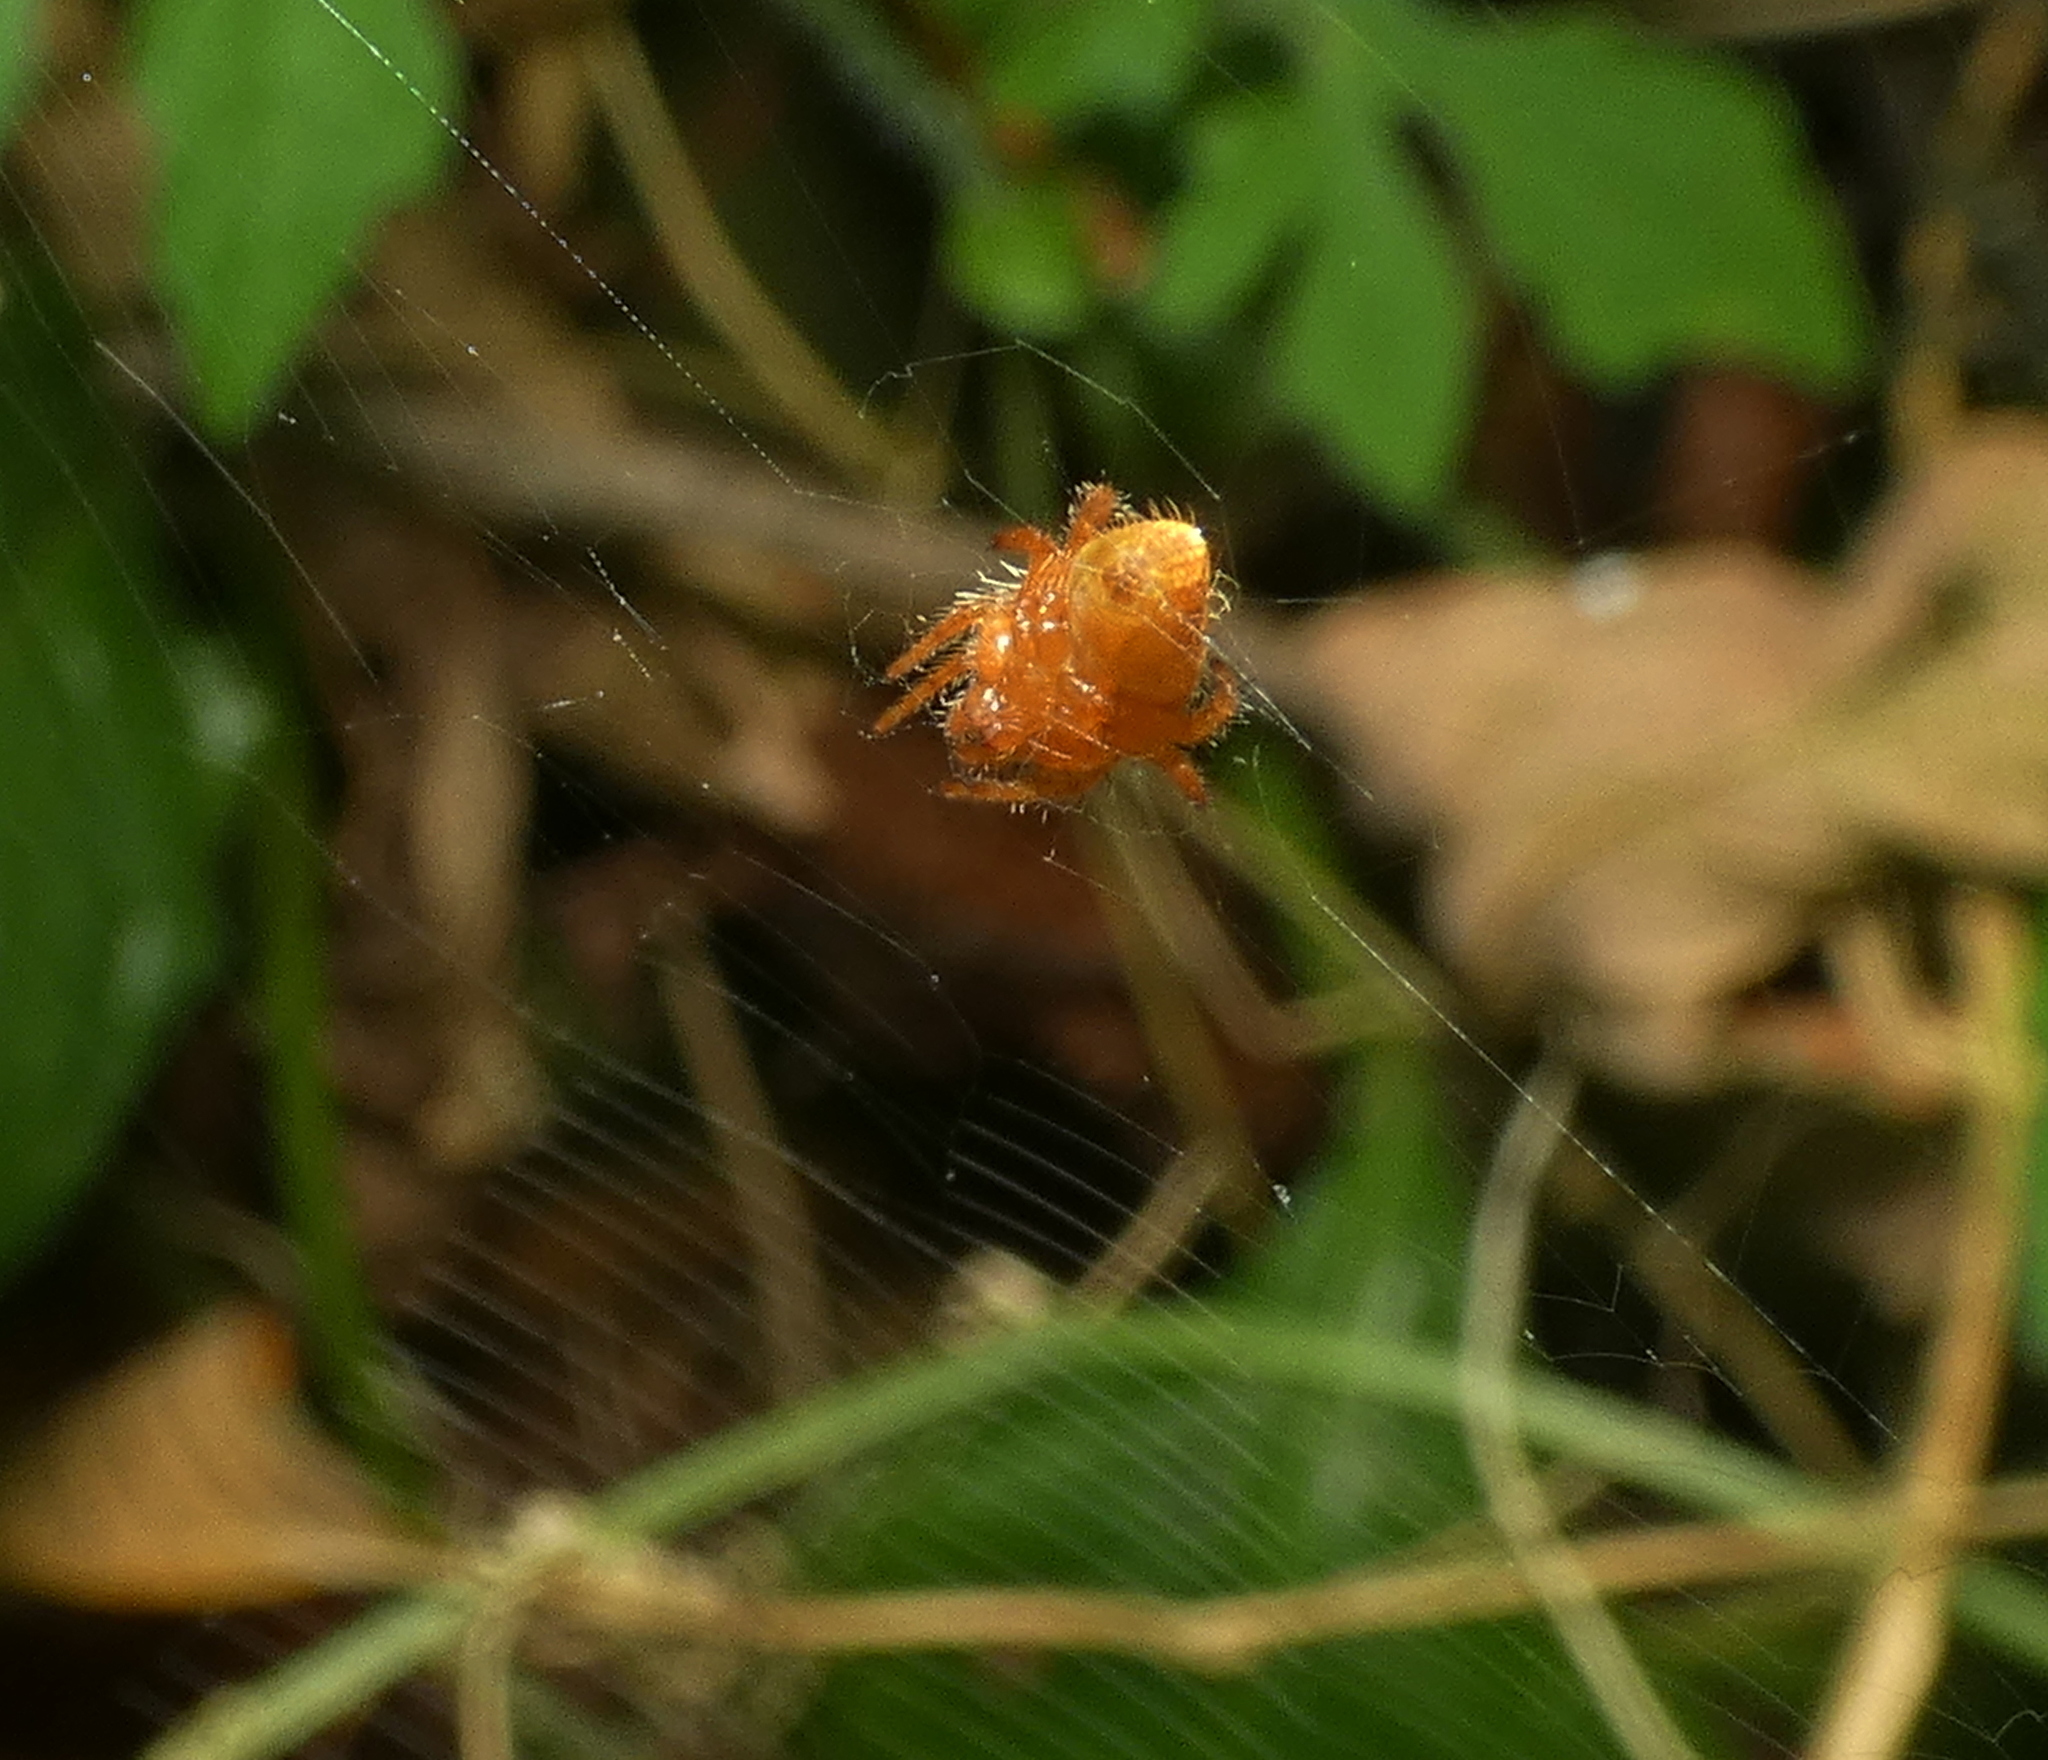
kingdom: Animalia
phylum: Arthropoda
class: Arachnida
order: Araneae
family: Araneidae
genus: Eriophora
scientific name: Eriophora edax
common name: Orb weavers
